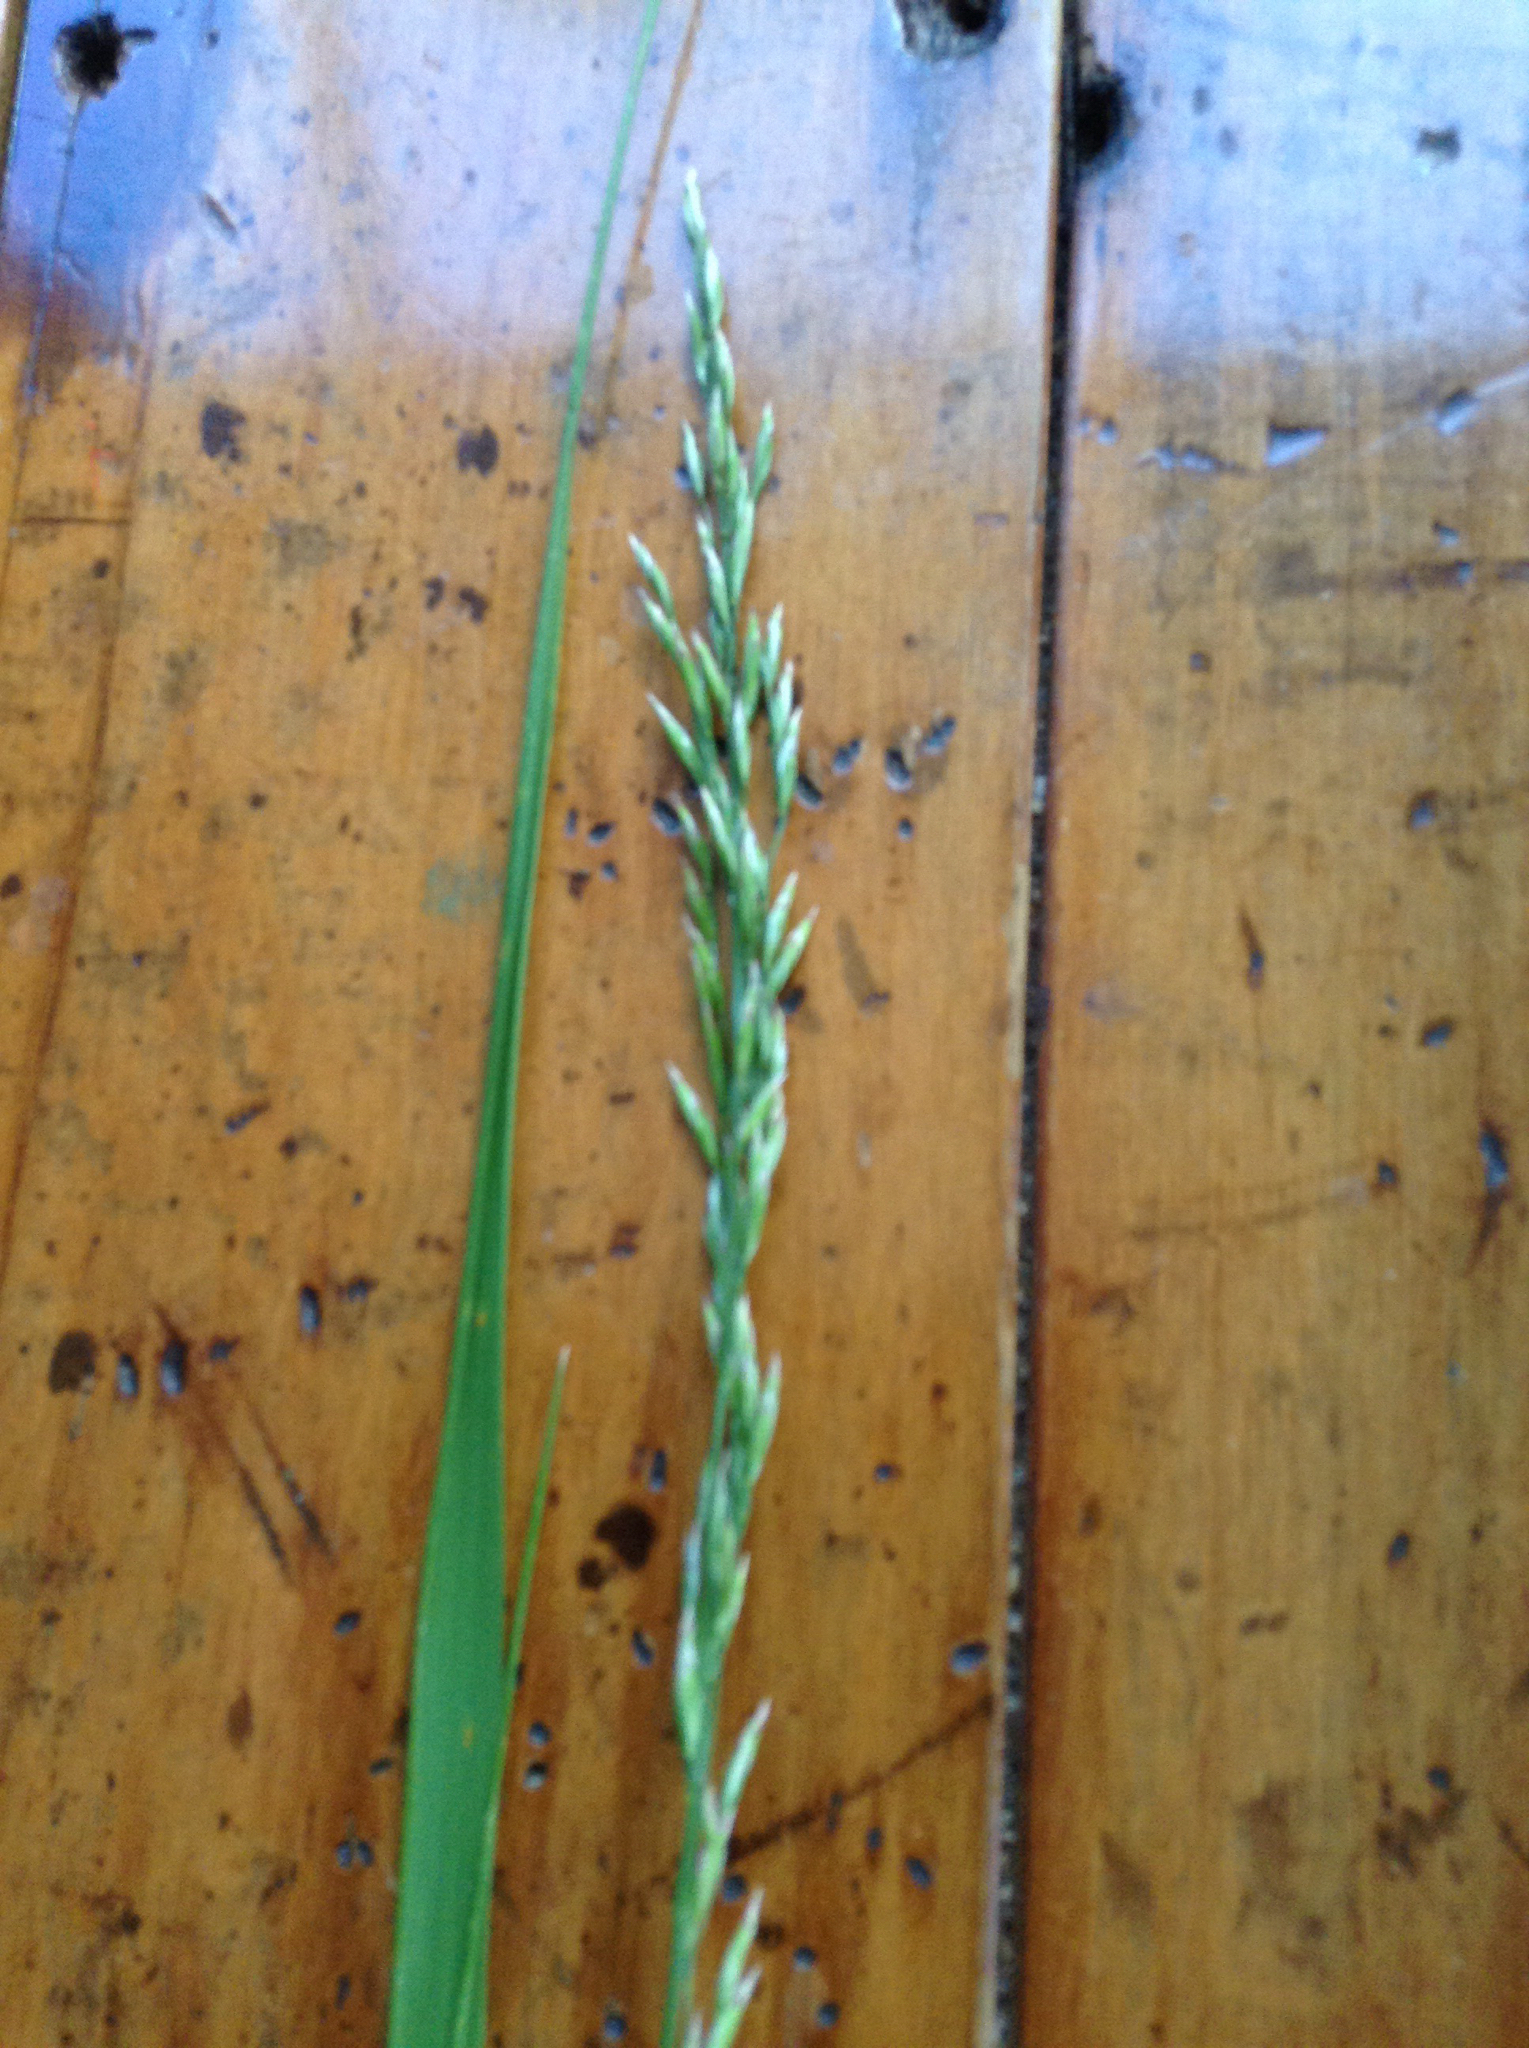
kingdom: Plantae
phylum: Tracheophyta
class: Liliopsida
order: Poales
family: Poaceae
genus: Lolium
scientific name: Lolium arundinaceum
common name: Reed fescue
